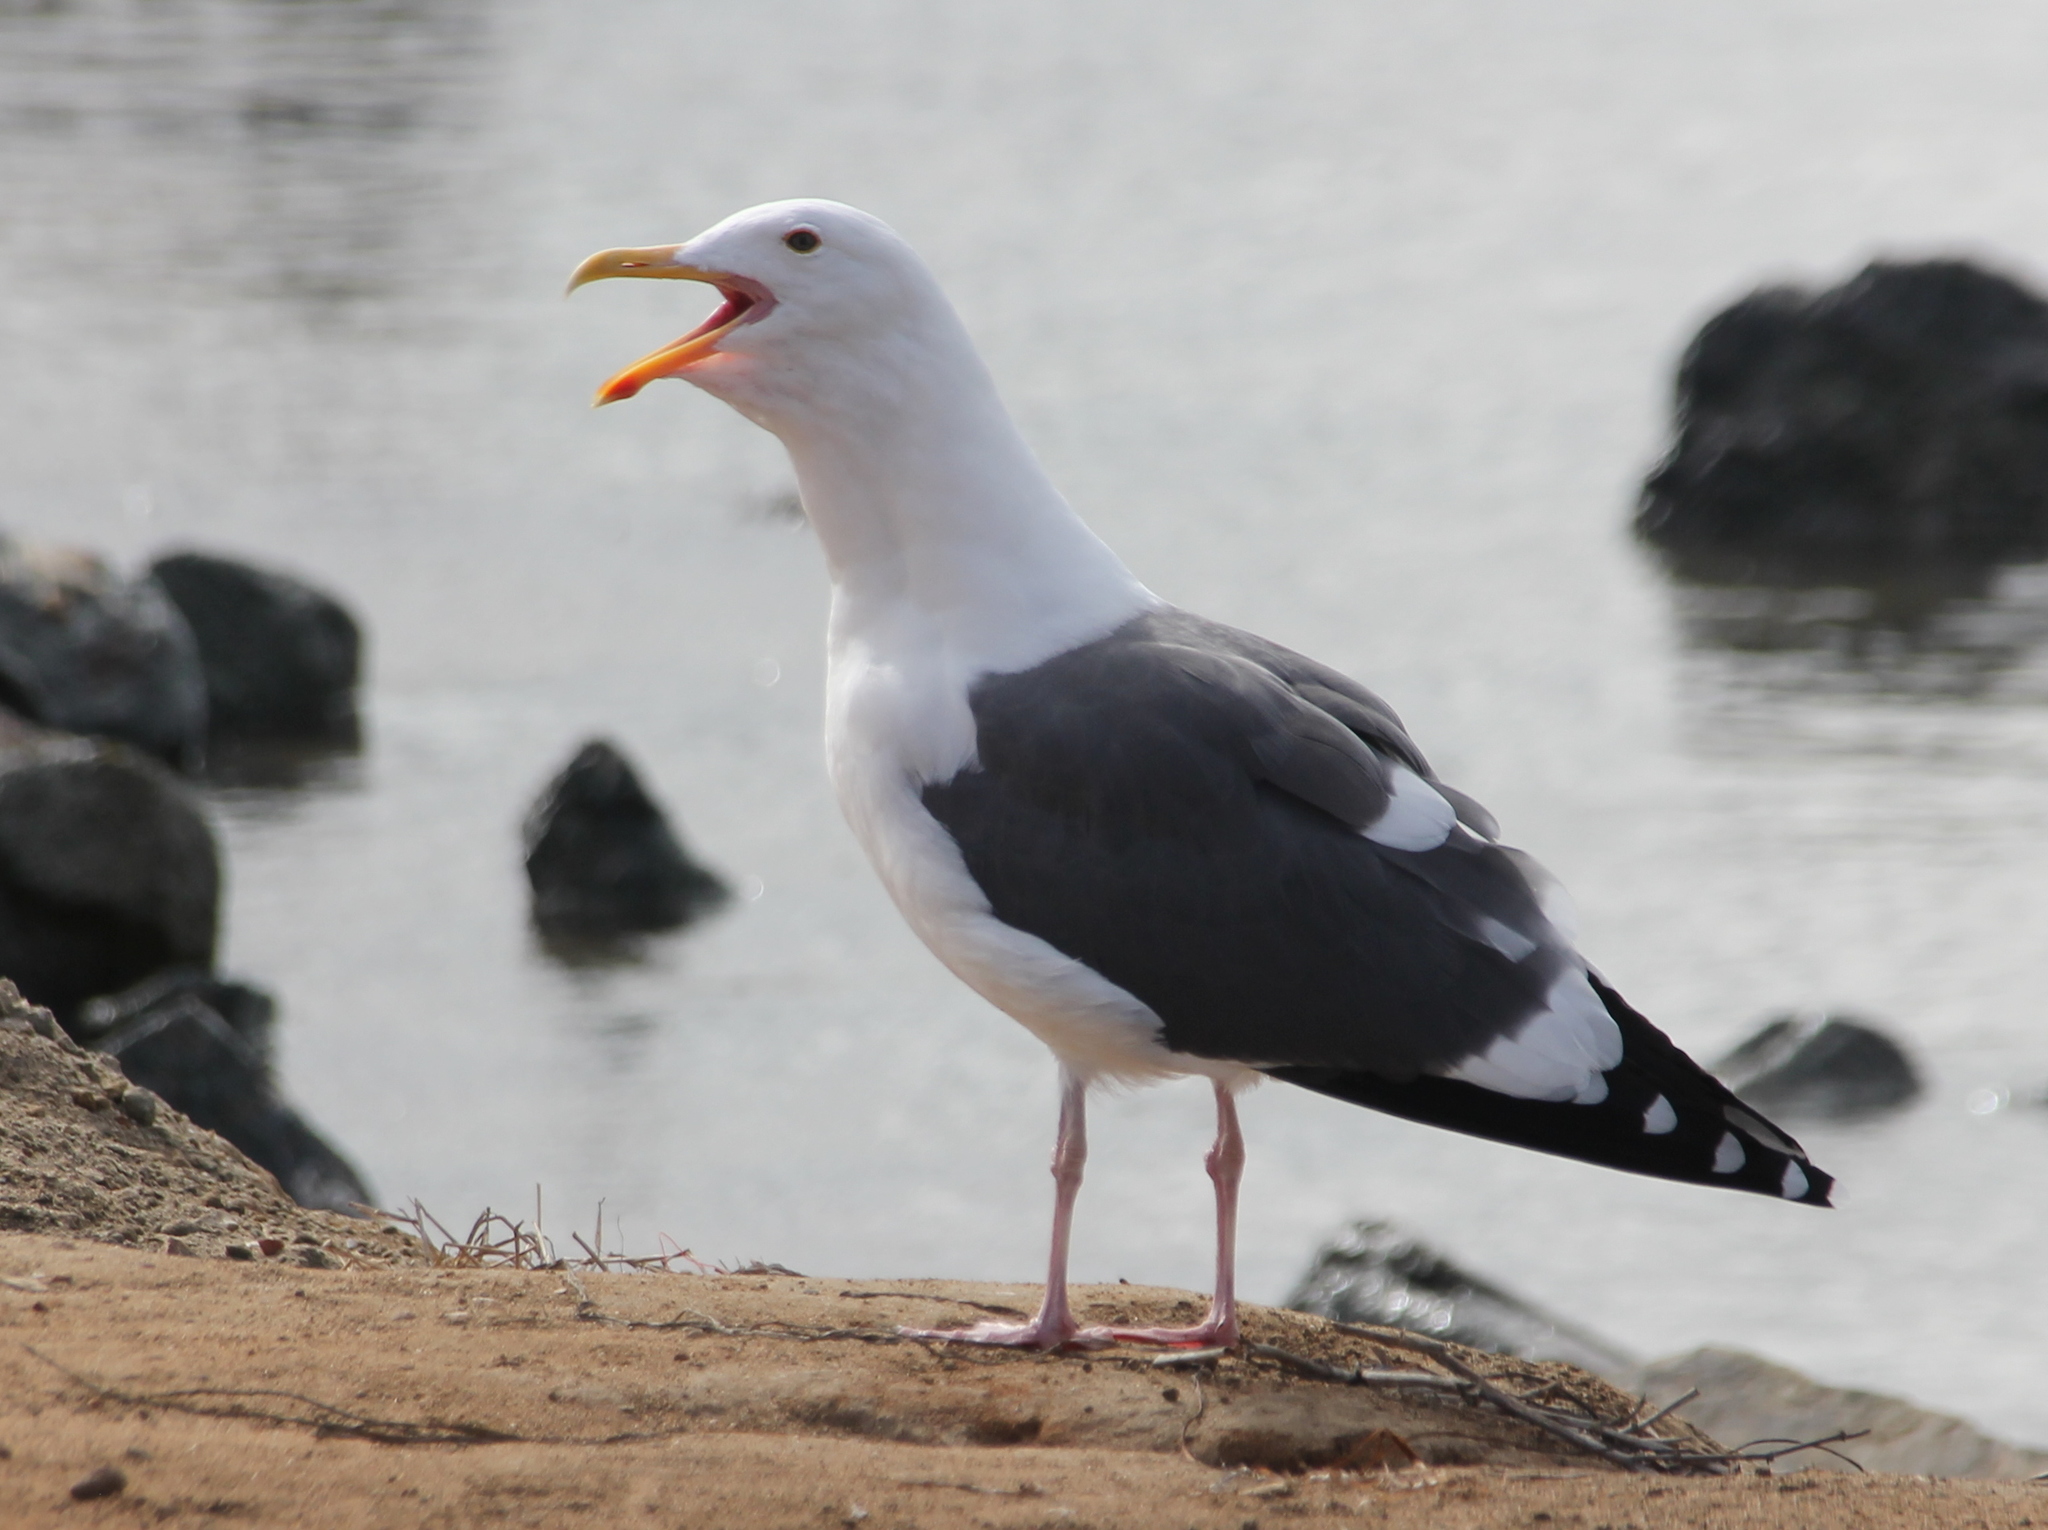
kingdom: Animalia
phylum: Chordata
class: Aves
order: Charadriiformes
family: Laridae
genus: Larus
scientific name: Larus occidentalis
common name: Western gull
